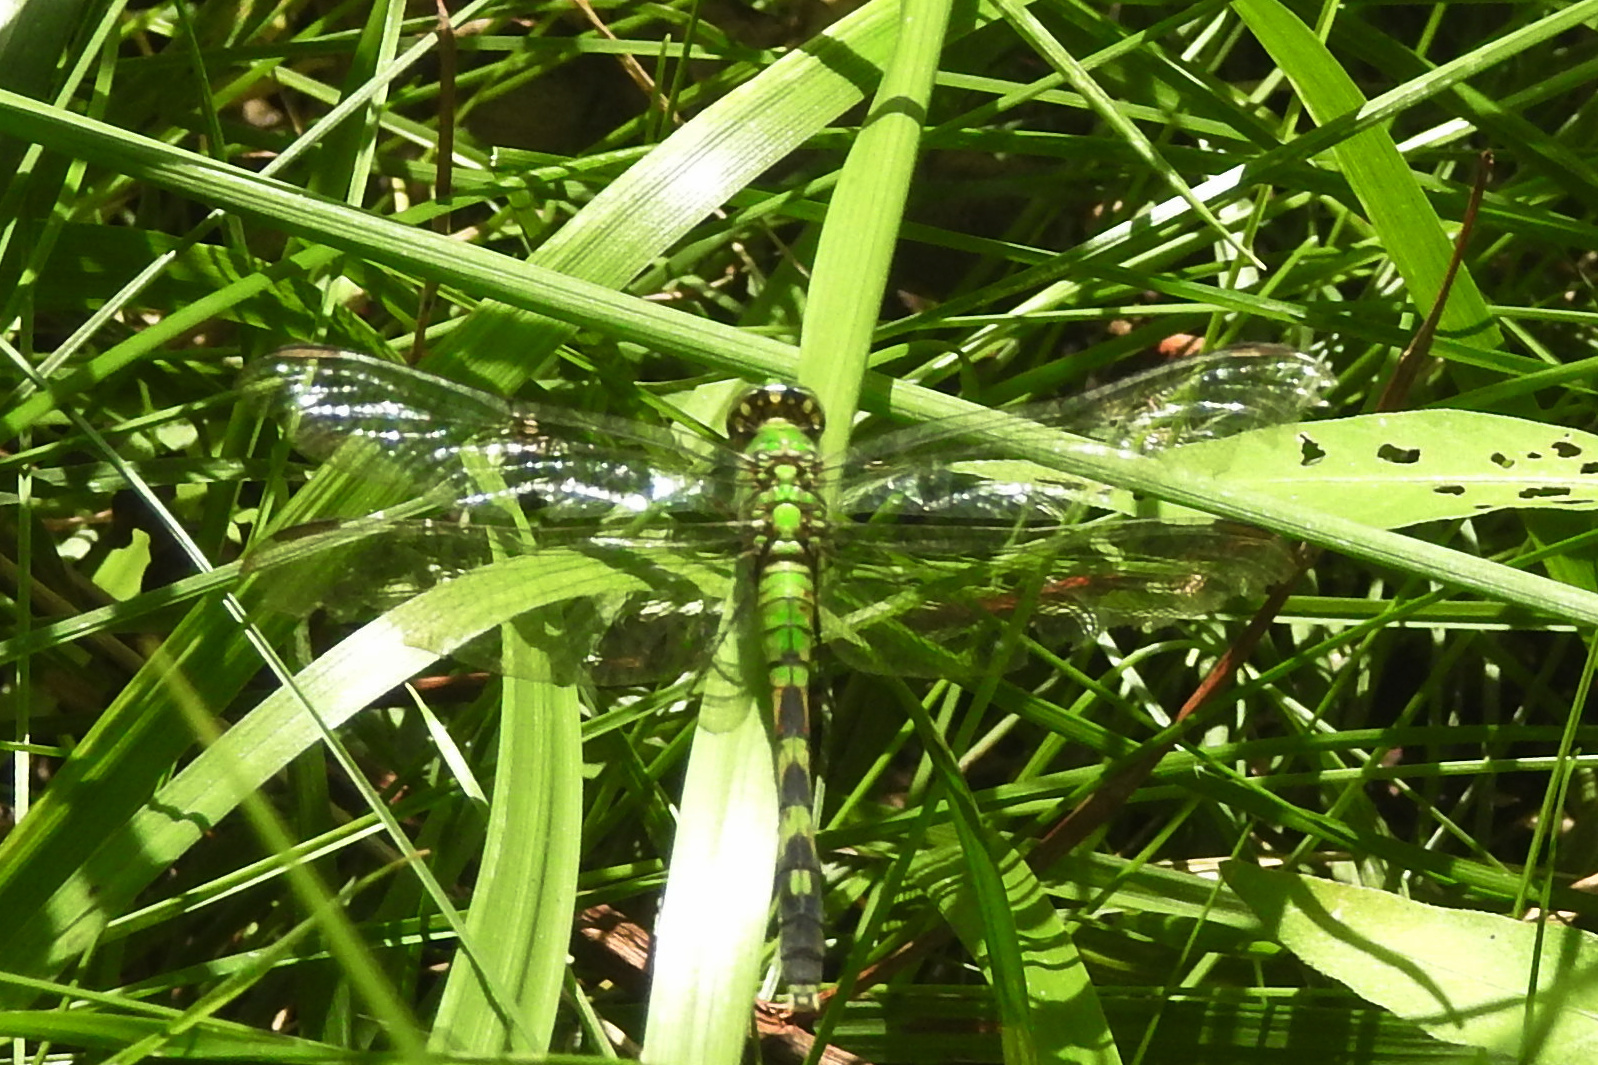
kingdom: Animalia
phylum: Arthropoda
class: Insecta
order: Odonata
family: Libellulidae
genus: Erythemis
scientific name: Erythemis simplicicollis
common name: Eastern pondhawk
